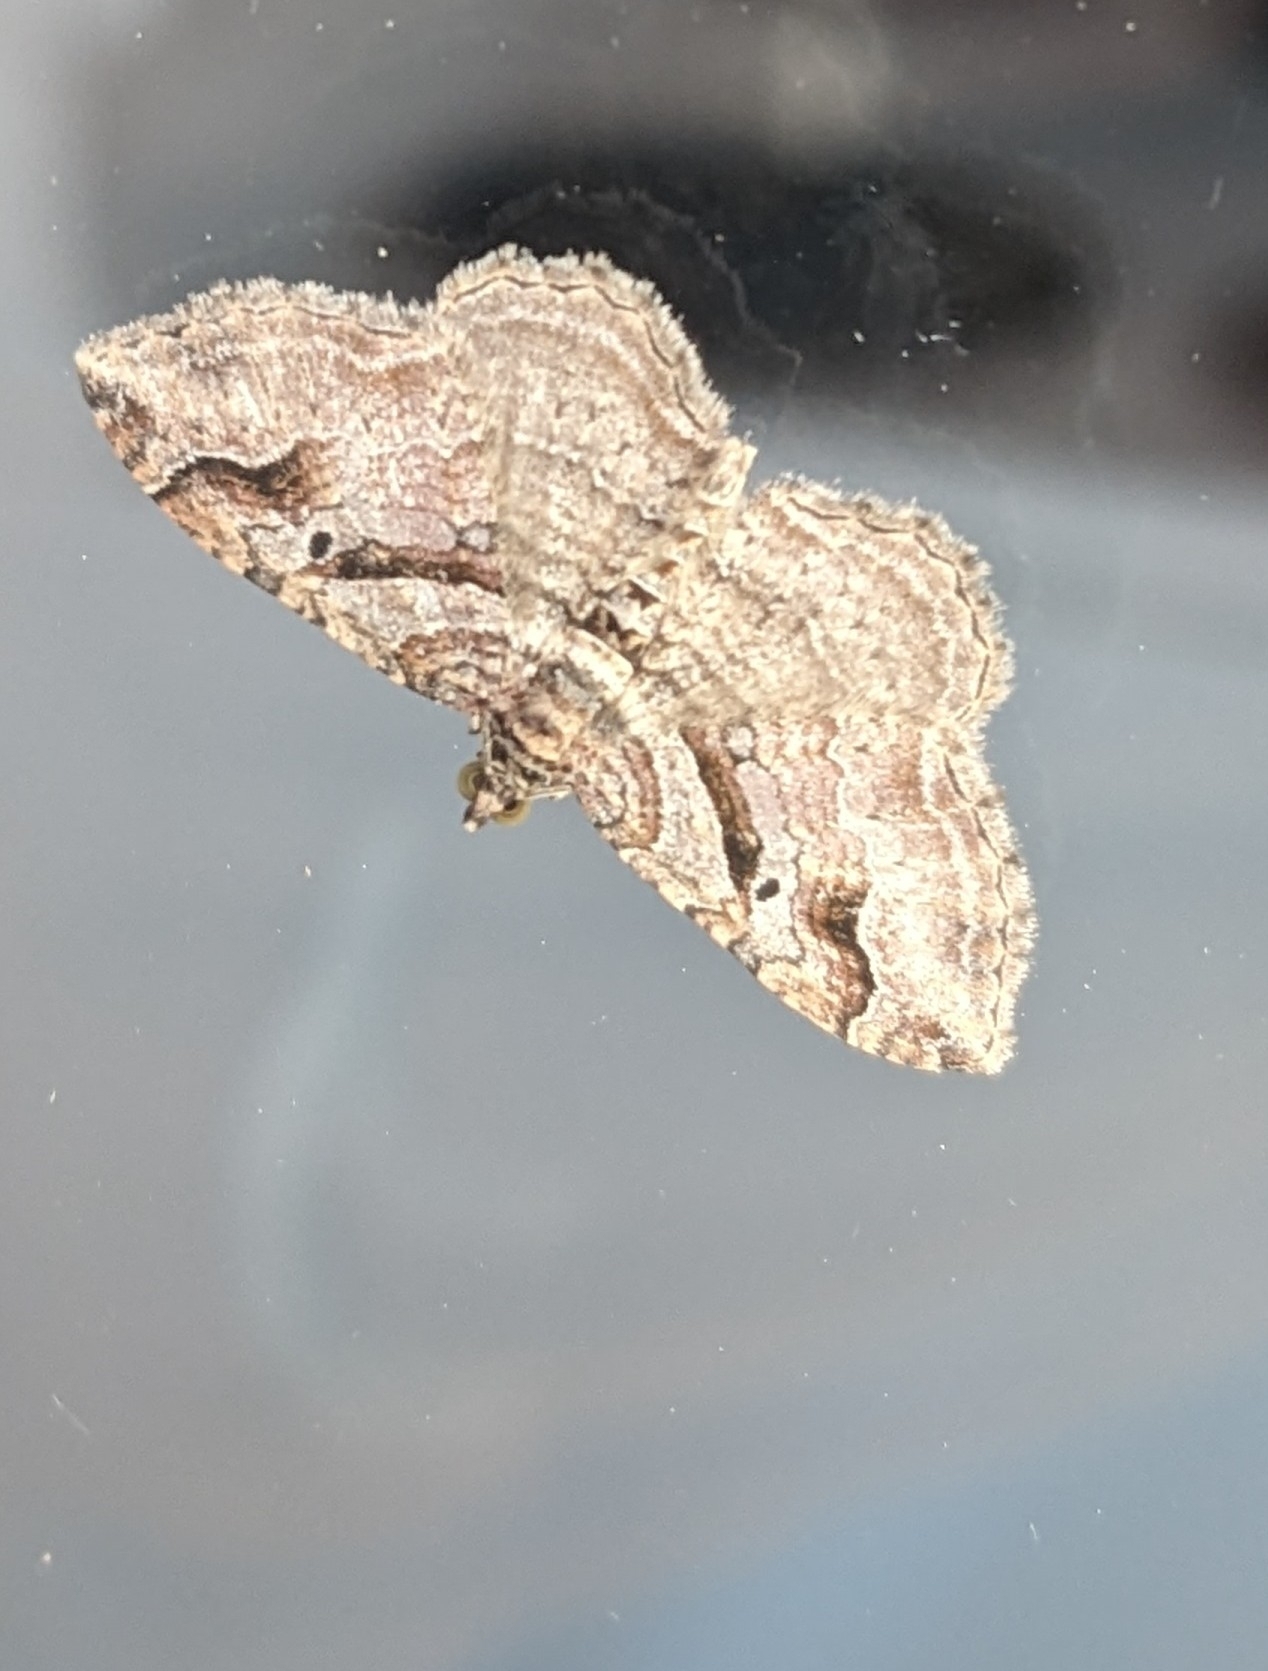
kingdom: Animalia
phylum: Arthropoda
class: Insecta
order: Lepidoptera
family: Geometridae
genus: Costaconvexa
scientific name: Costaconvexa centrostrigaria
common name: Bent-line carpet
